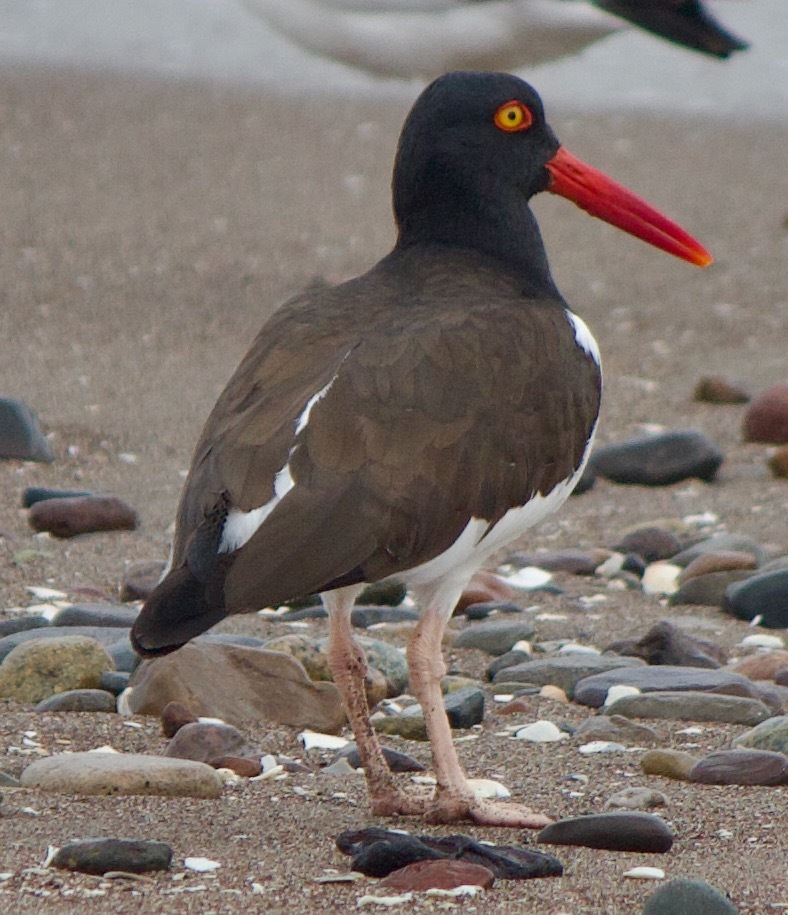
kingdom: Animalia
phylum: Chordata
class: Aves
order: Charadriiformes
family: Haematopodidae
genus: Haematopus
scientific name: Haematopus palliatus
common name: American oystercatcher
